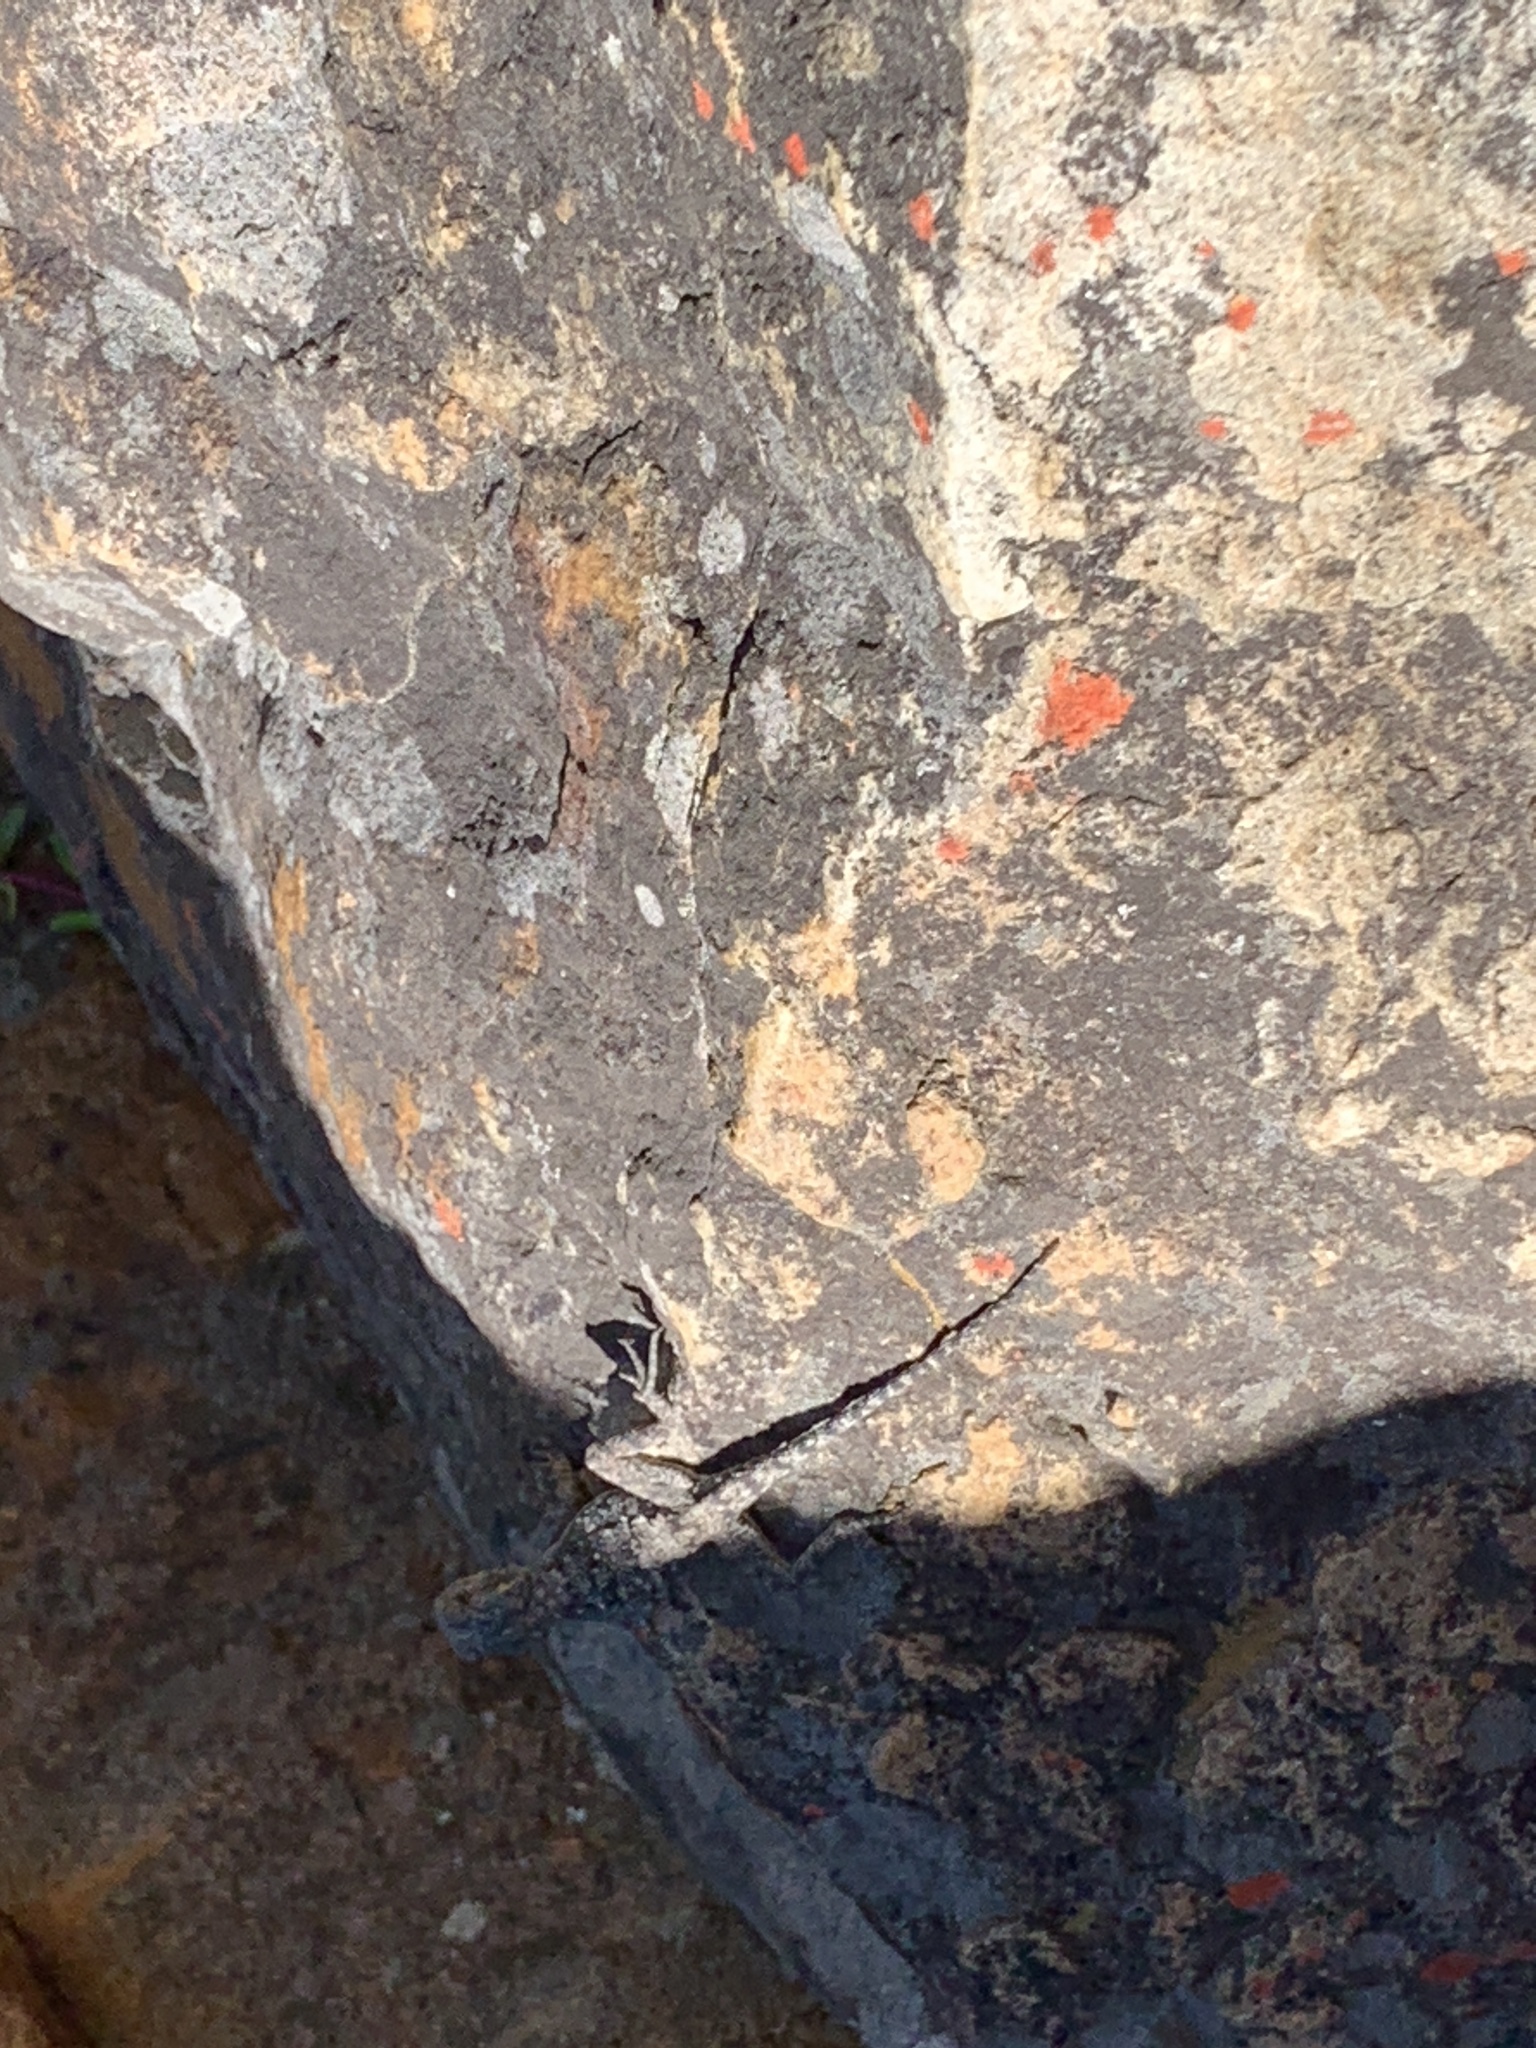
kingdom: Animalia
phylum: Chordata
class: Squamata
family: Agamidae
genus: Agama
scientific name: Agama atra
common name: Southern african rock agama
